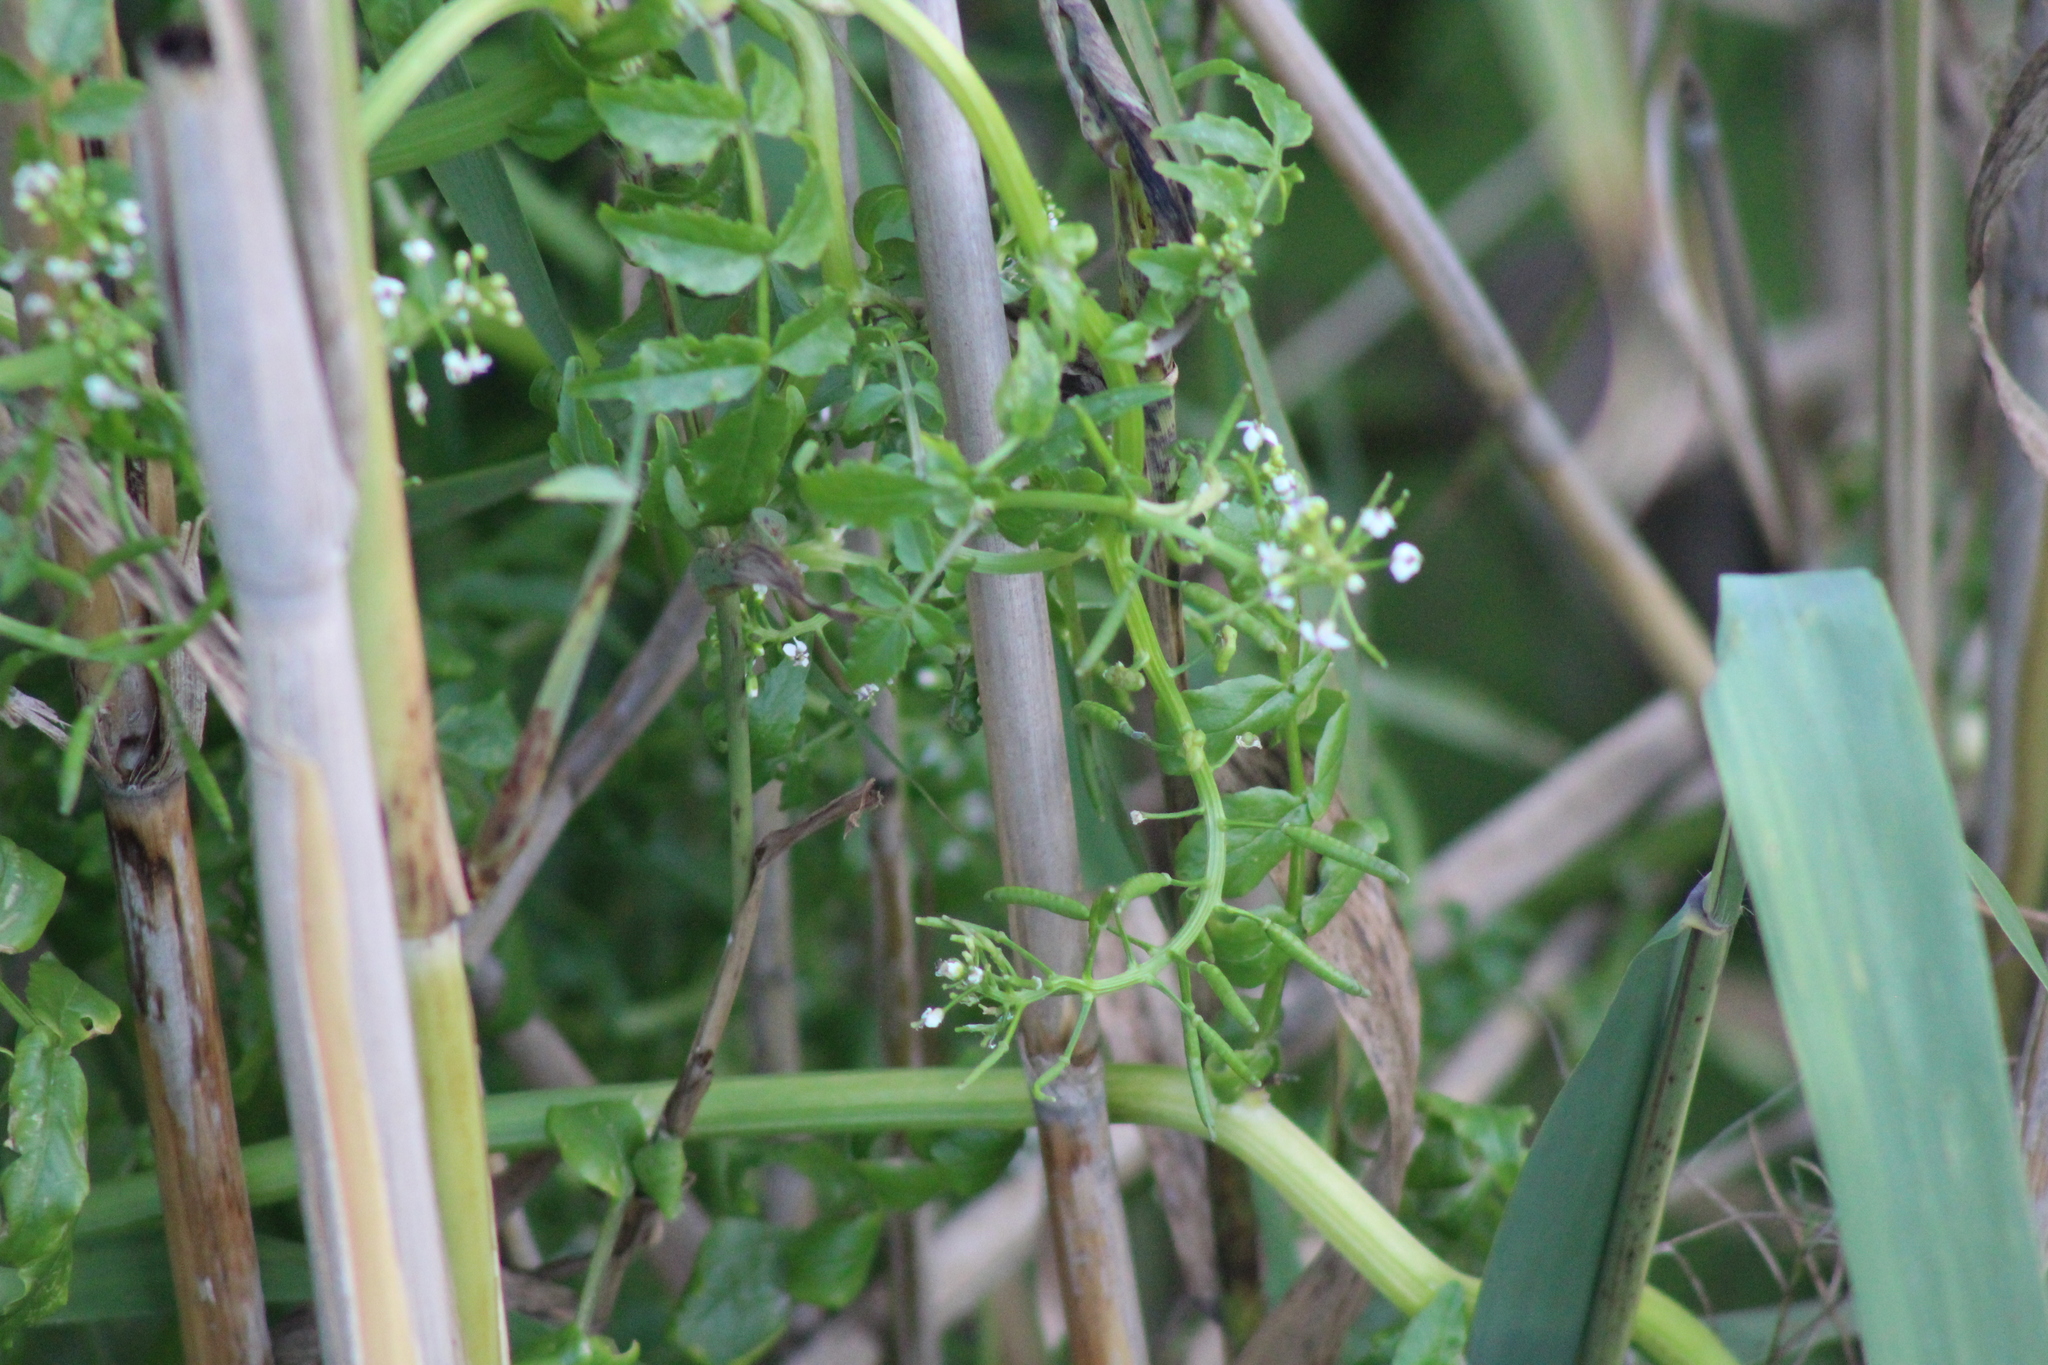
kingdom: Plantae
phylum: Tracheophyta
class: Magnoliopsida
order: Brassicales
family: Brassicaceae
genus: Nasturtium
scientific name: Nasturtium officinale
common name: Watercress
